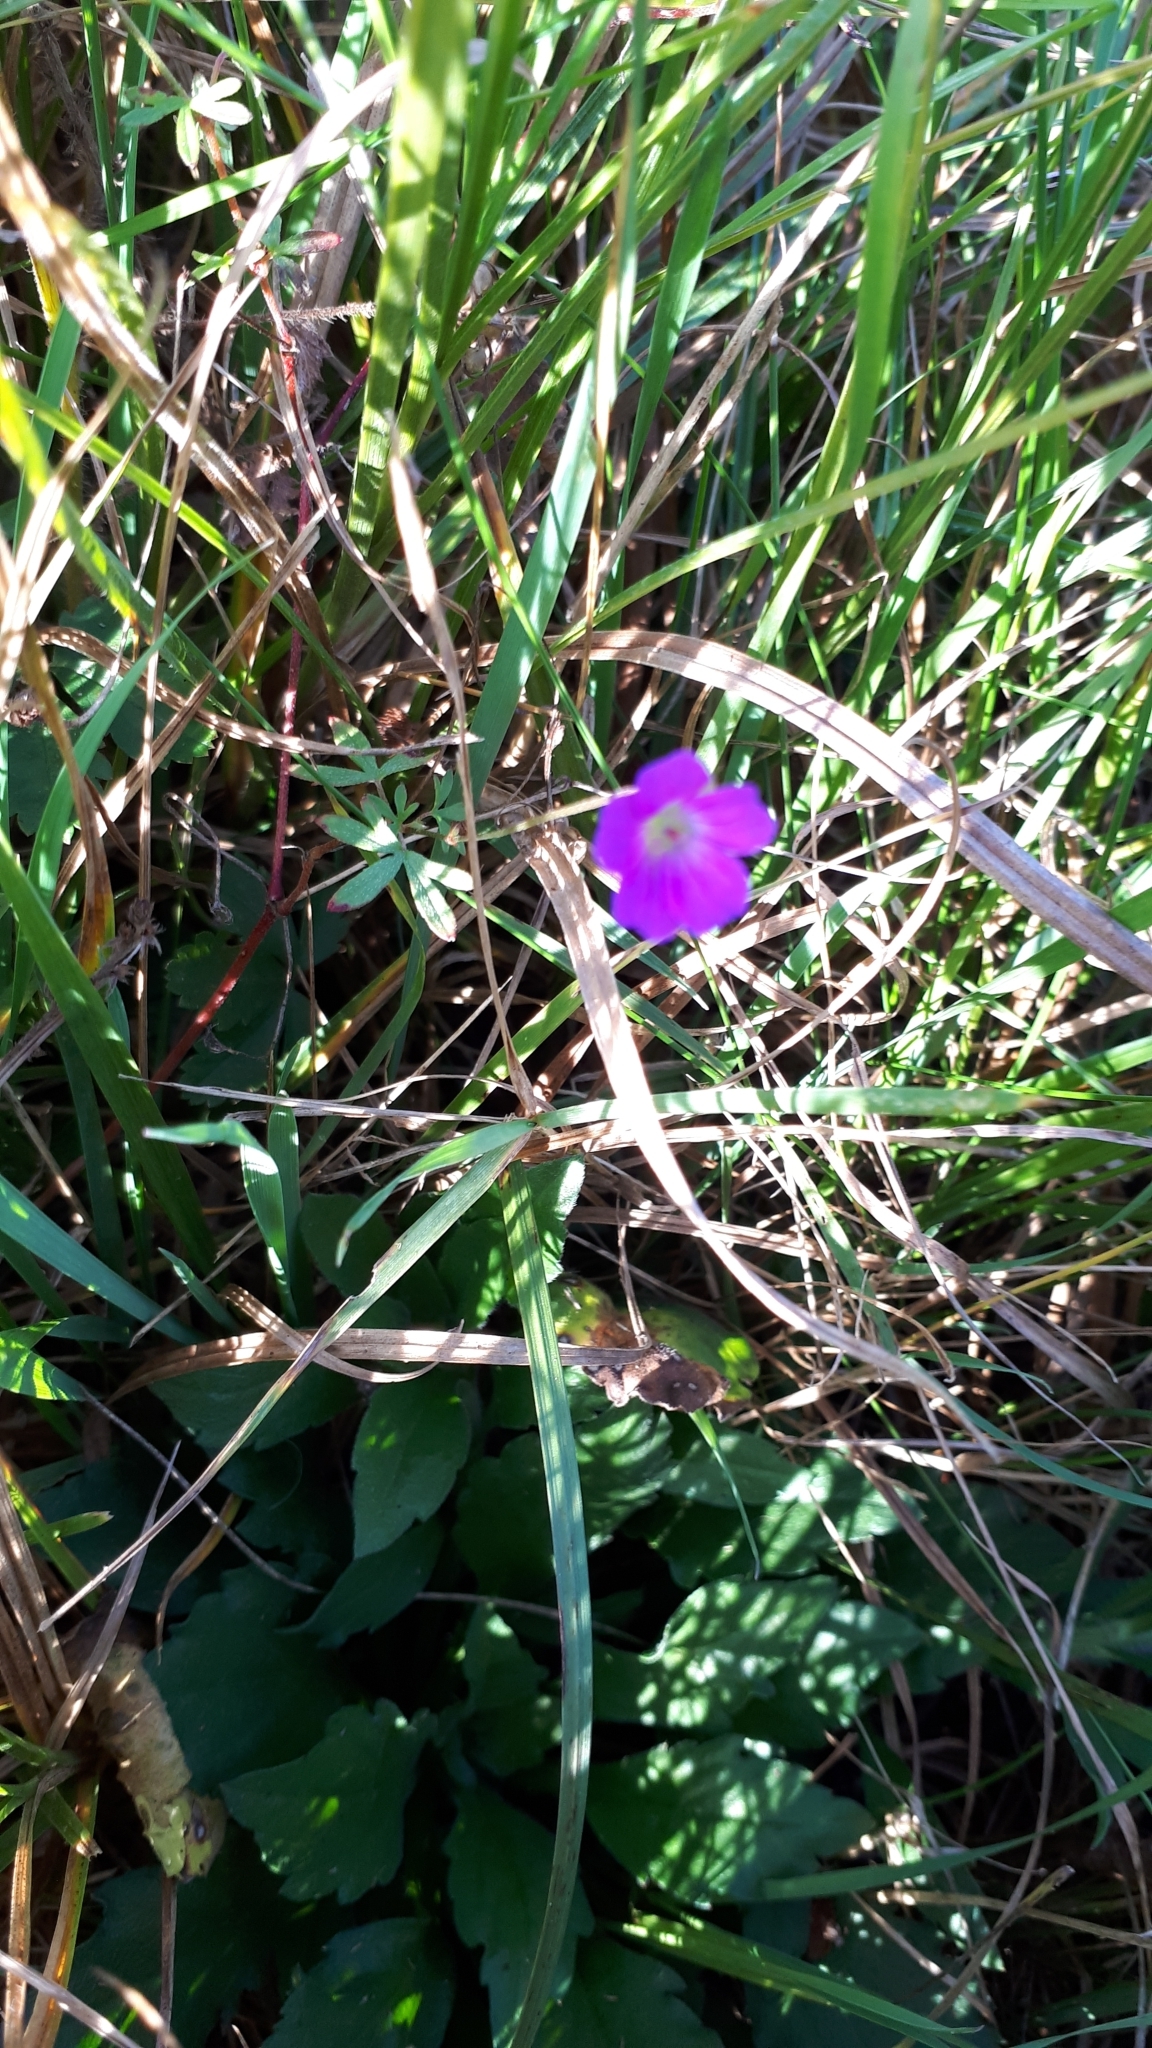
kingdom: Plantae
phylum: Tracheophyta
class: Magnoliopsida
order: Geraniales
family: Geraniaceae
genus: Geranium
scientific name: Geranium columbinum
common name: Long-stalked crane's-bill
